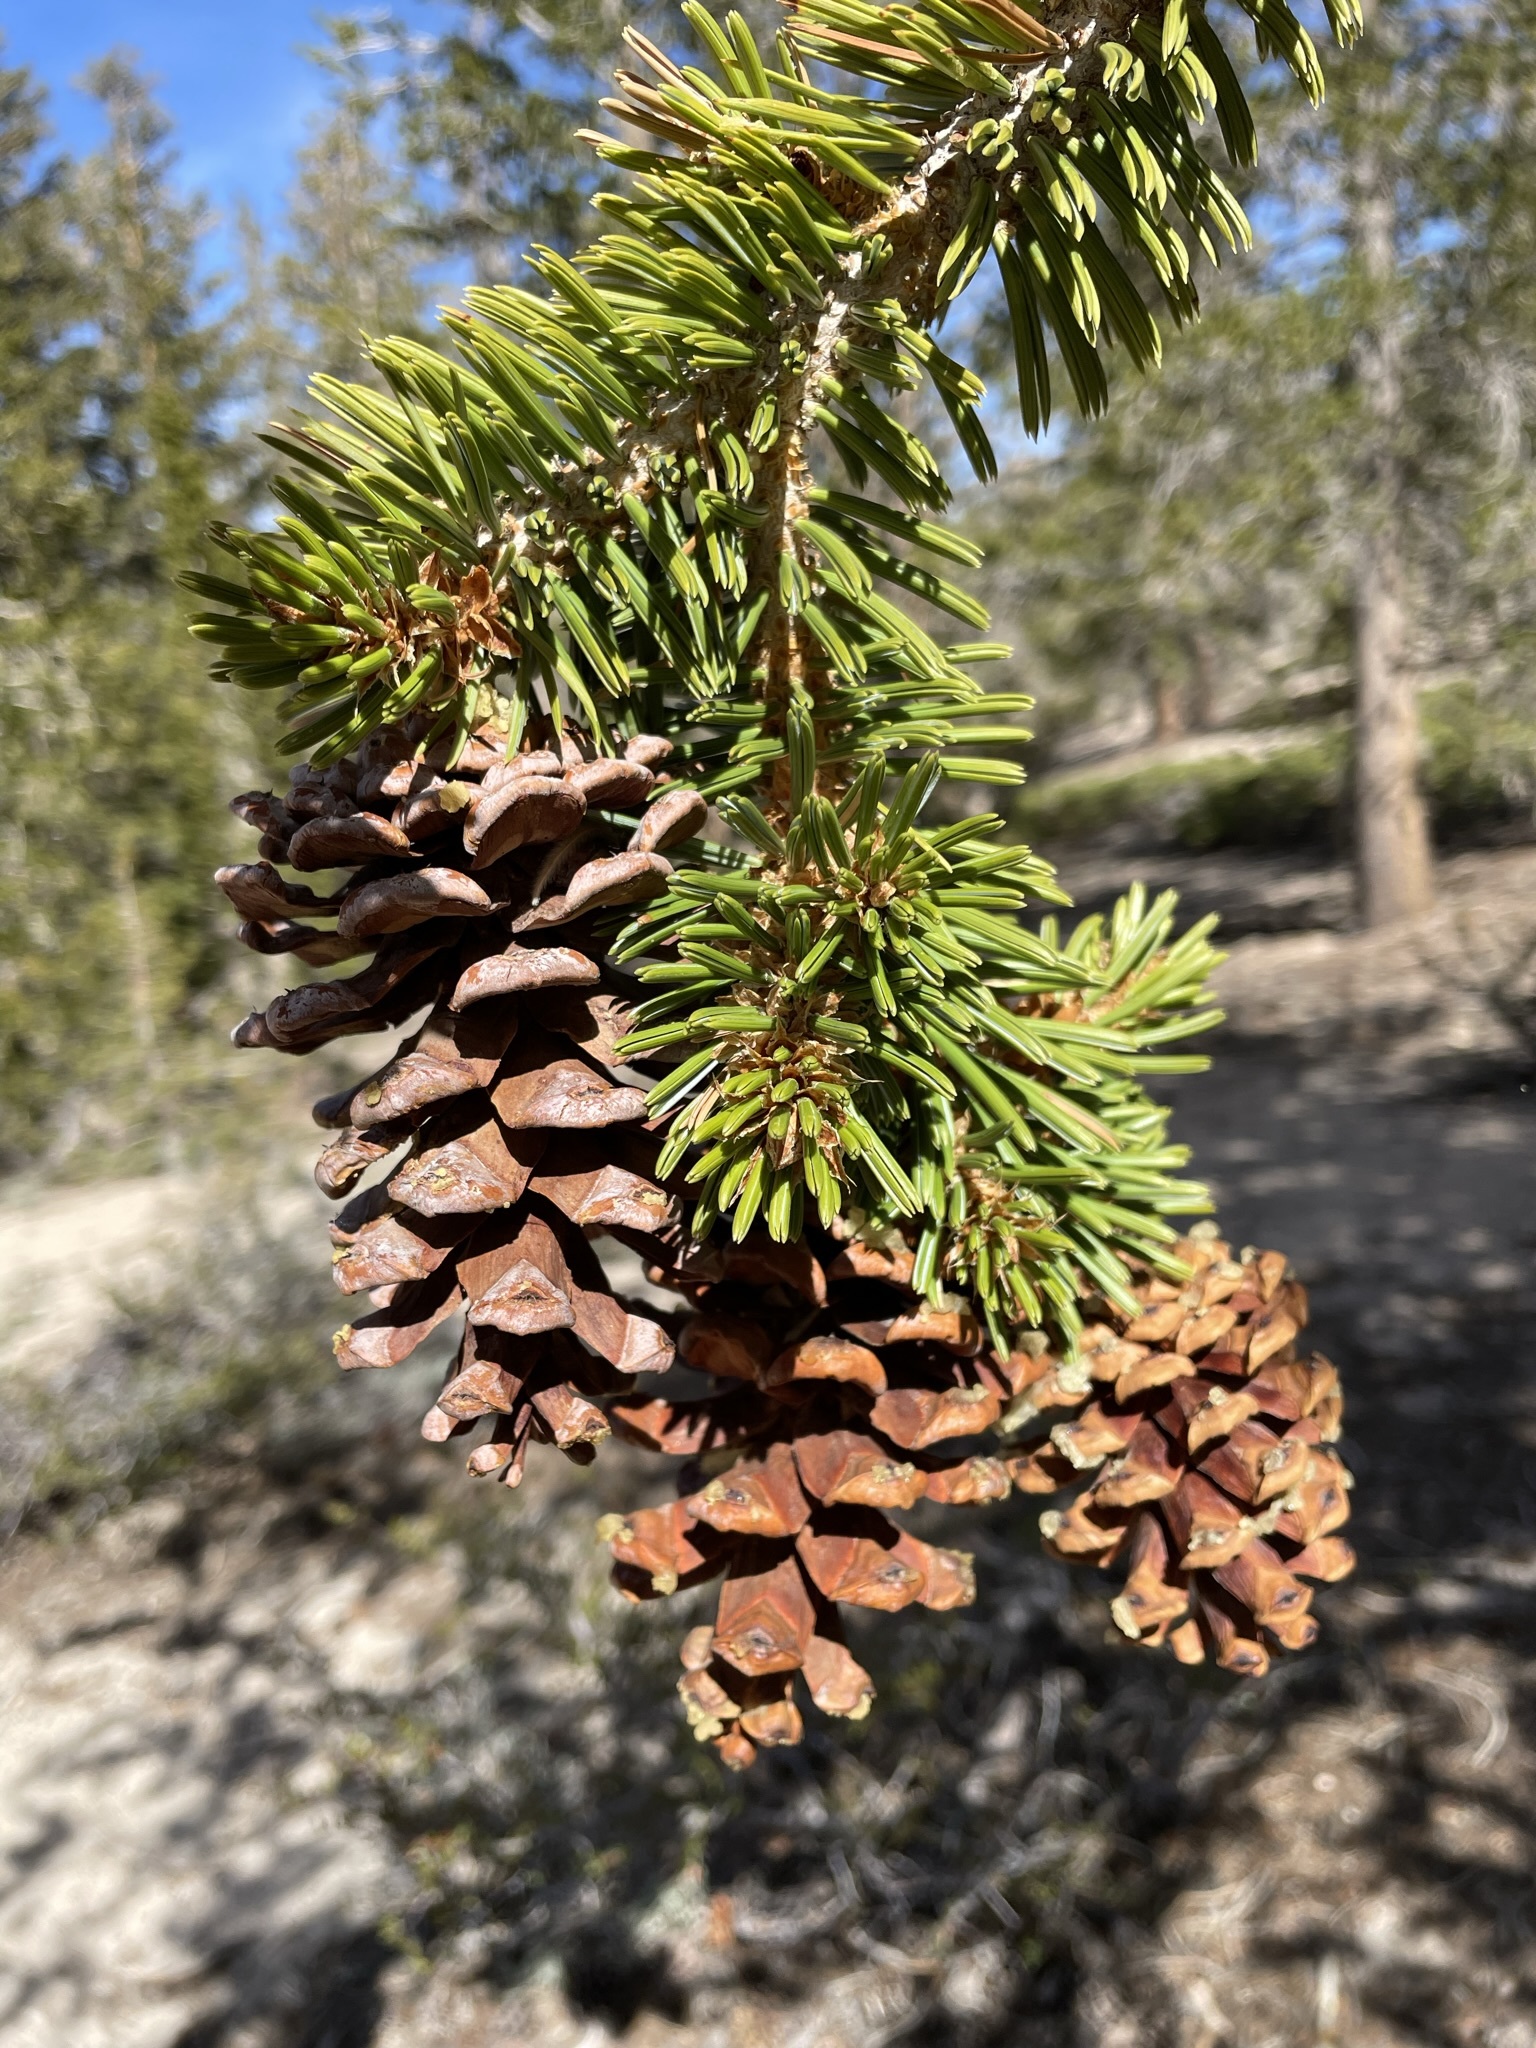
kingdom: Plantae
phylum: Tracheophyta
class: Pinopsida
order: Pinales
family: Pinaceae
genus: Pinus
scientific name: Pinus balfouriana
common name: Foxtail pine
